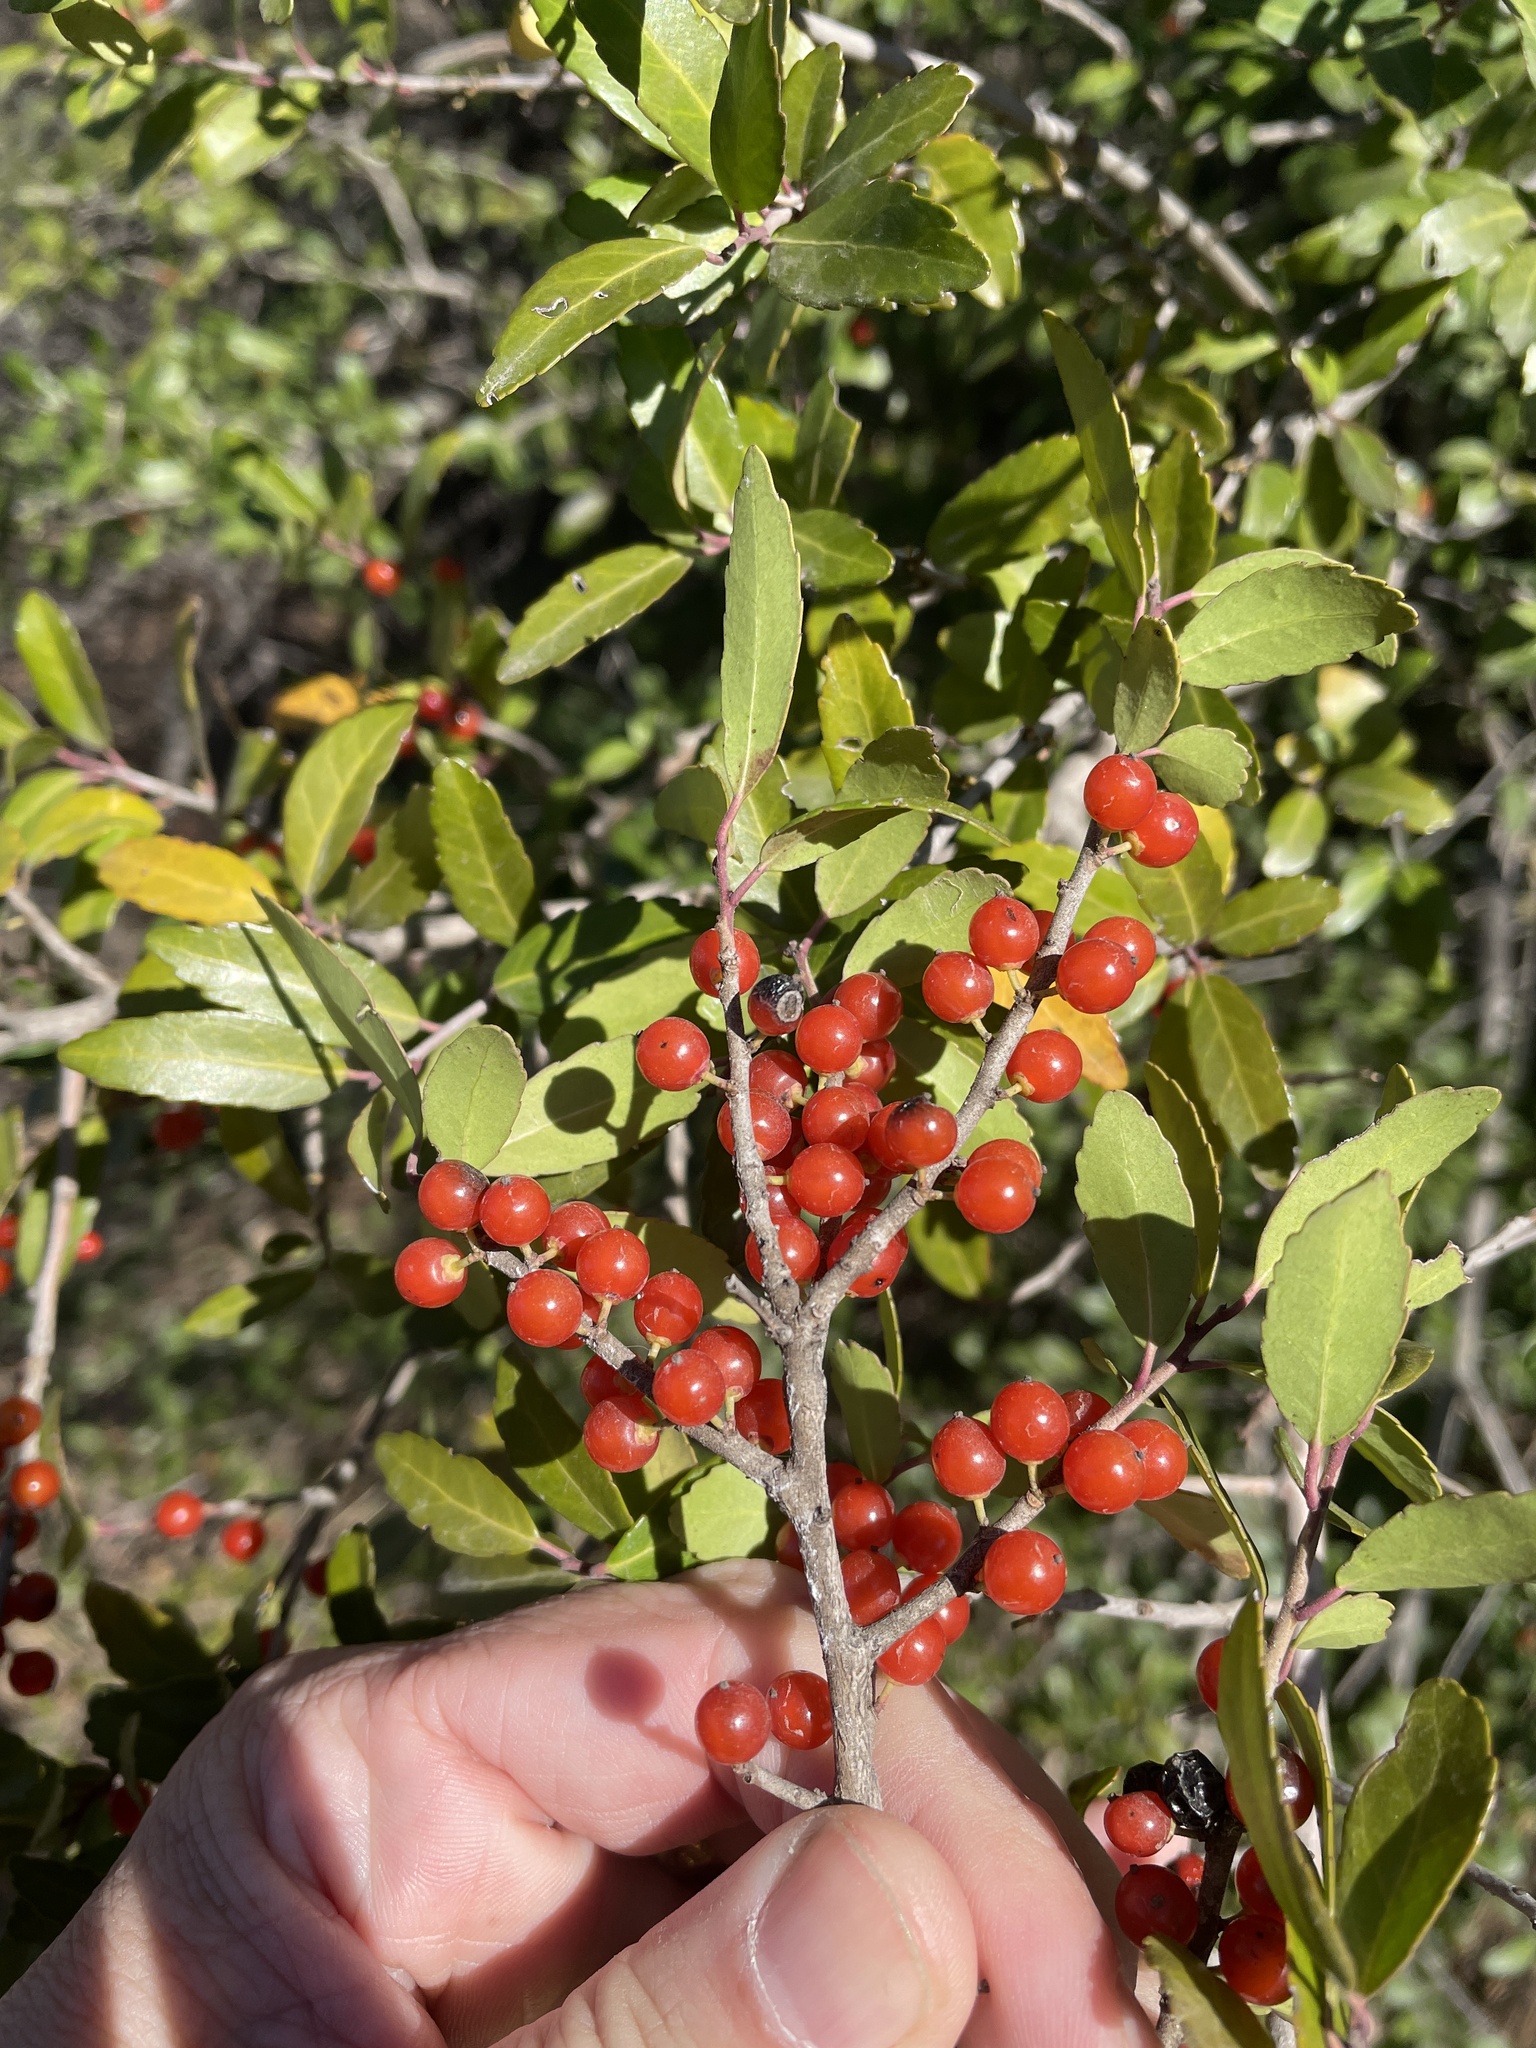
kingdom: Plantae
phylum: Tracheophyta
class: Magnoliopsida
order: Aquifoliales
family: Aquifoliaceae
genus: Ilex
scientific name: Ilex vomitoria
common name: Yaupon holly
